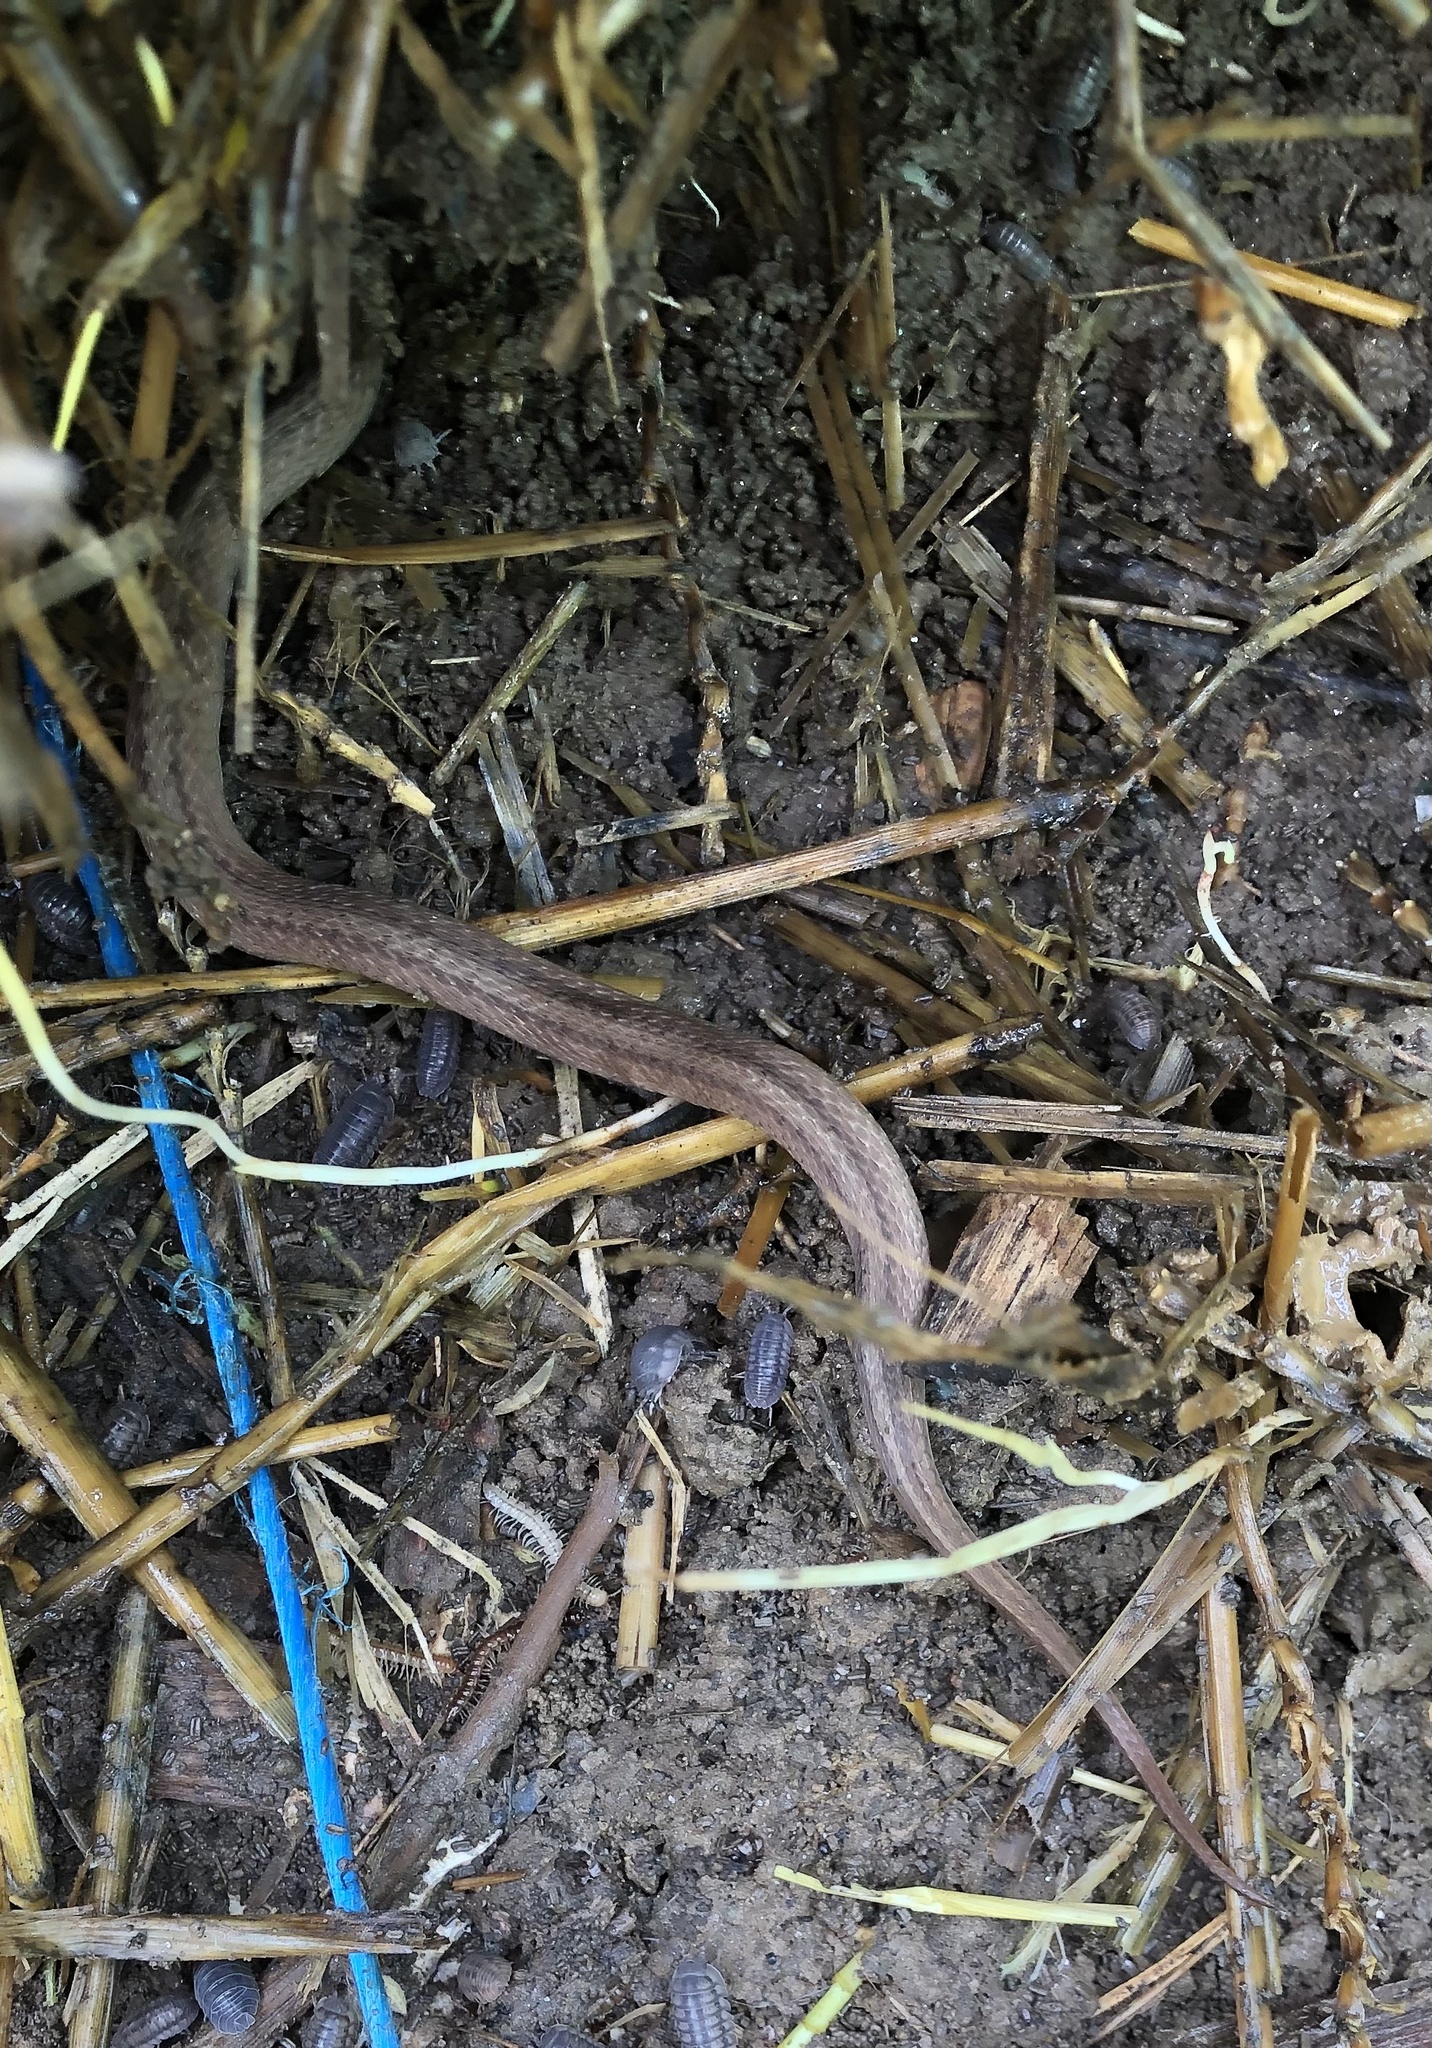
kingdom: Animalia
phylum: Chordata
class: Squamata
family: Colubridae
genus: Storeria
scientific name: Storeria dekayi
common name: (dekay’s) brown snake
